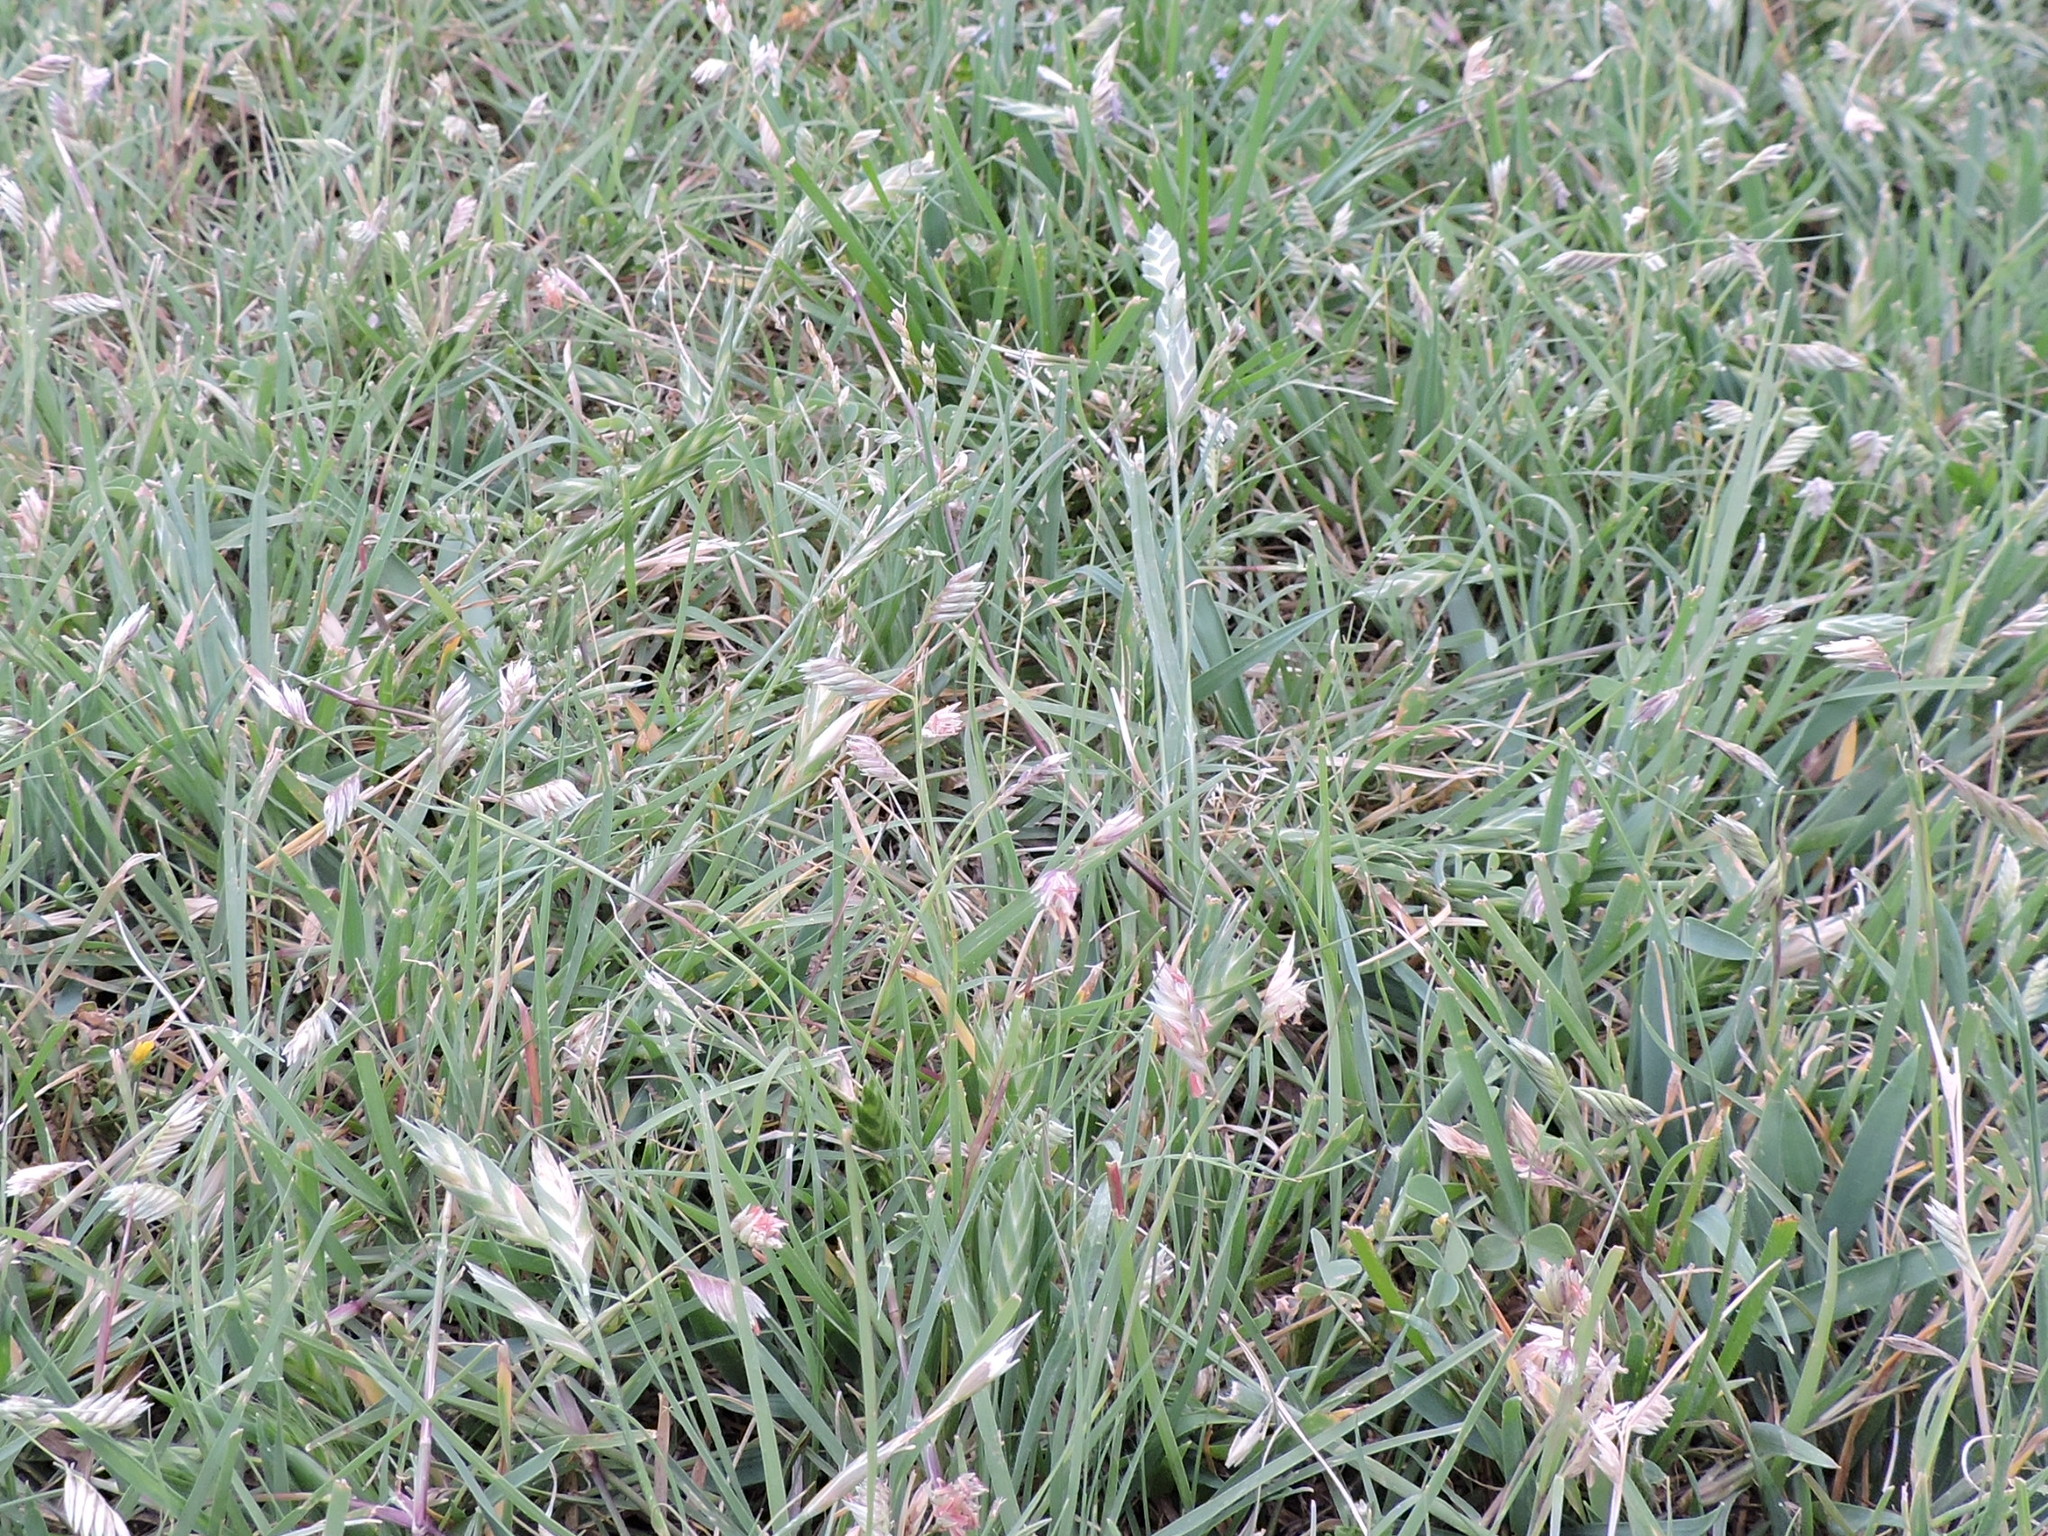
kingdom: Plantae
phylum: Tracheophyta
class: Liliopsida
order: Poales
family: Poaceae
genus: Bouteloua
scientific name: Bouteloua dactyloides
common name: Buffalo grass
